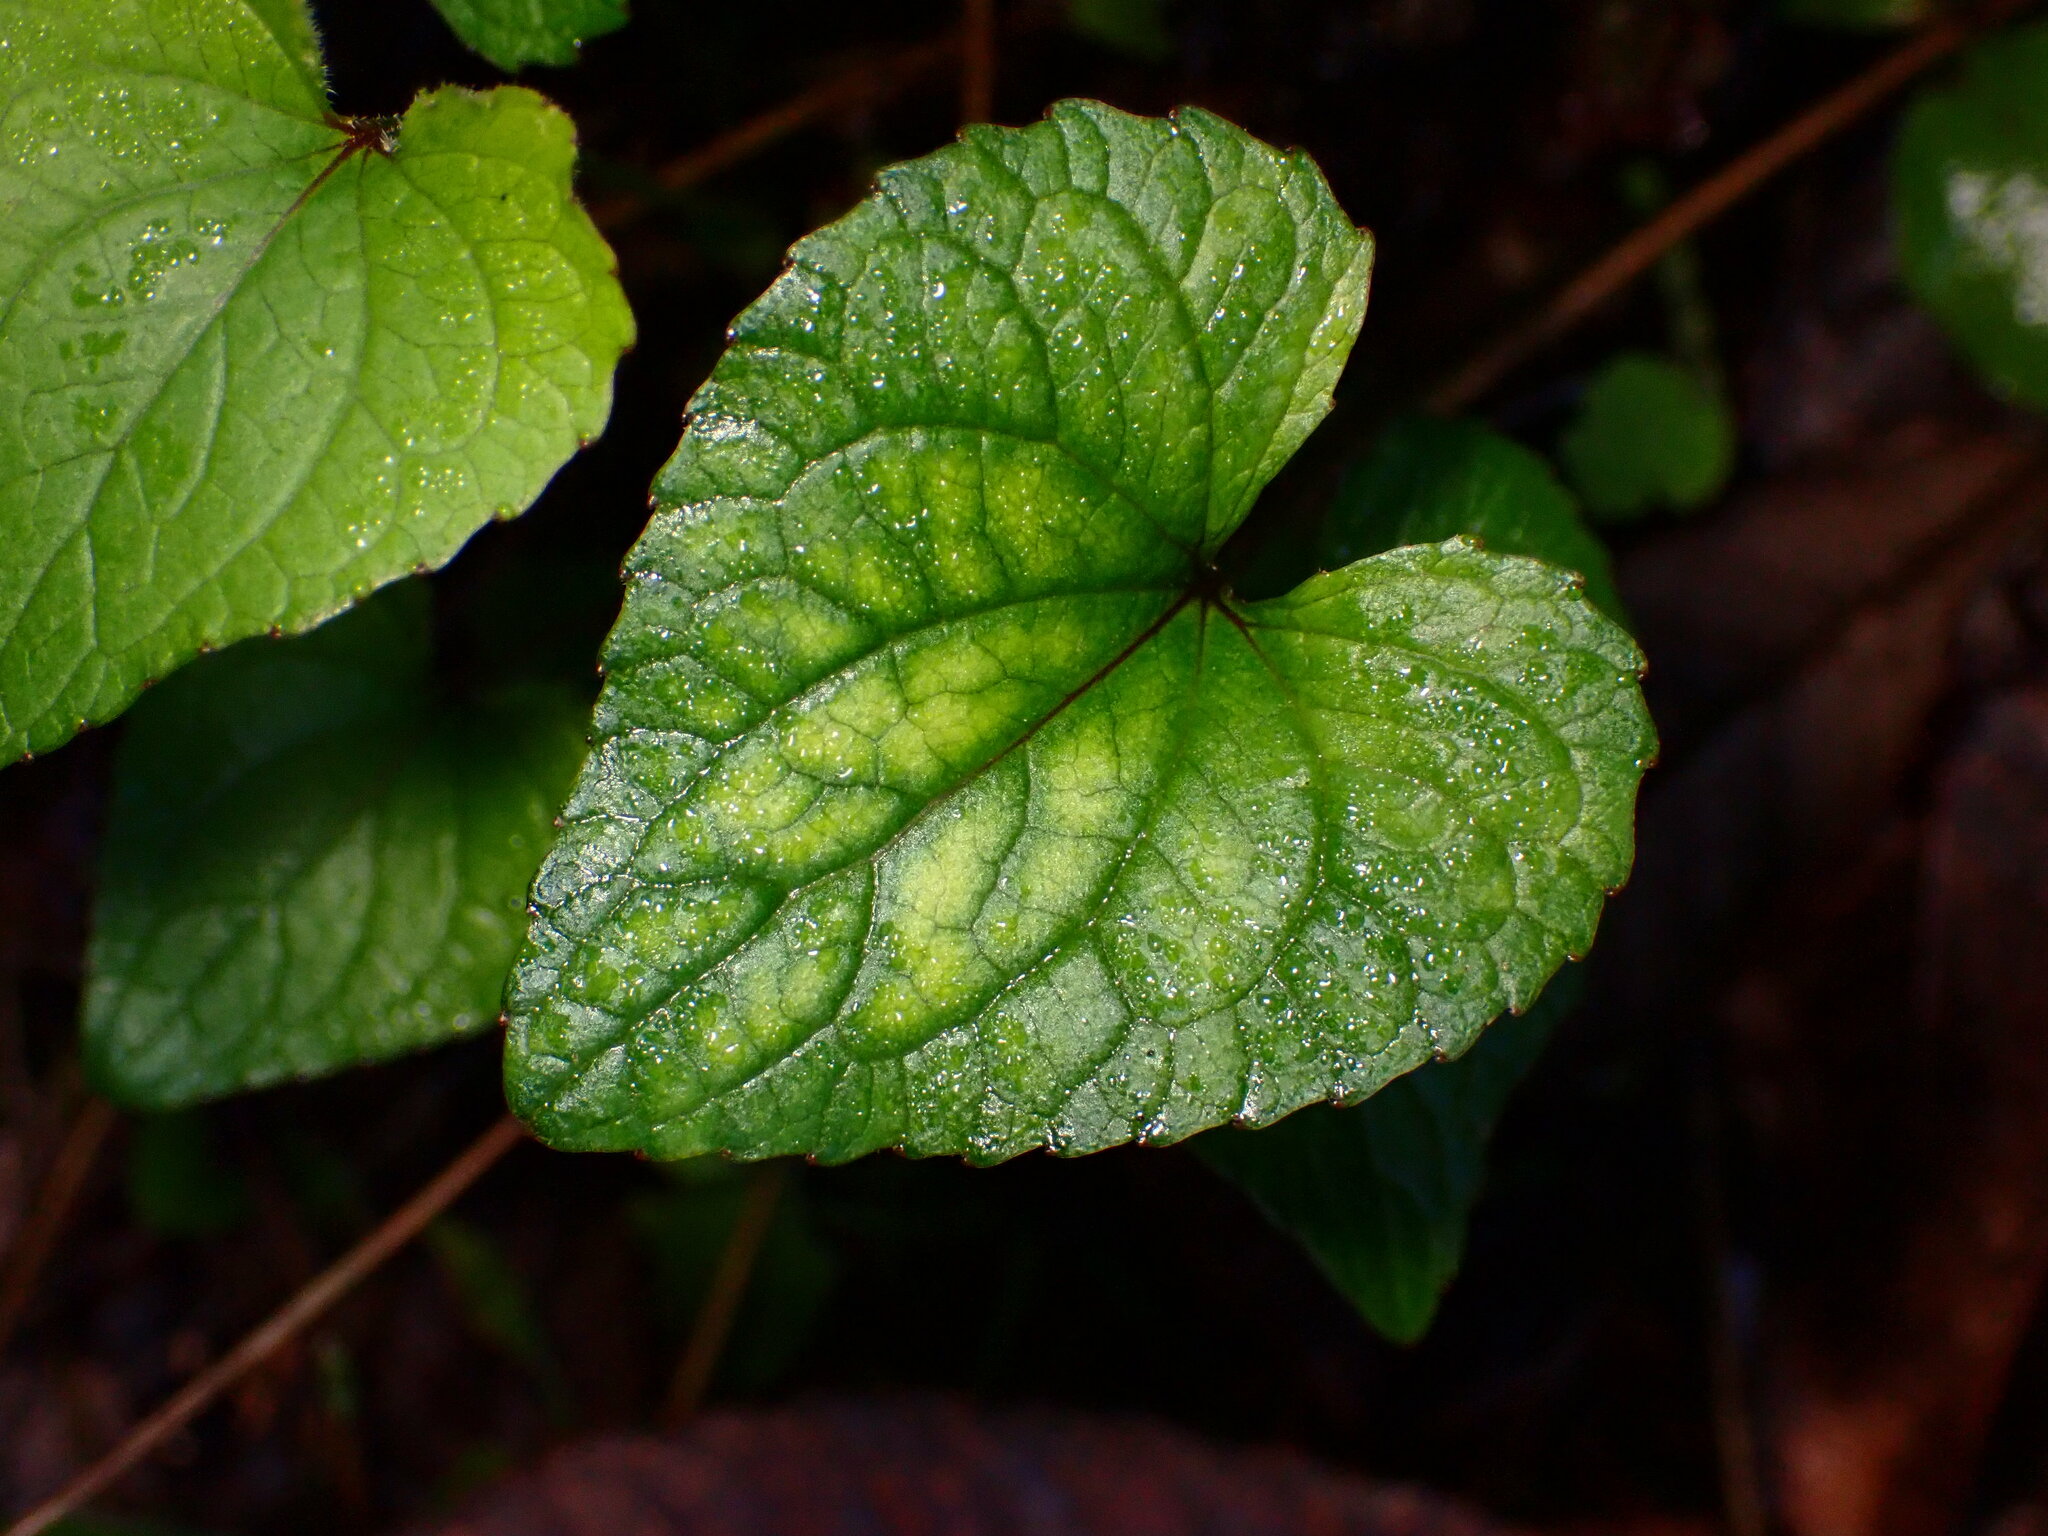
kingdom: Plantae
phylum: Tracheophyta
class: Magnoliopsida
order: Malpighiales
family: Violaceae
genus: Viola
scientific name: Viola ocellata
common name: Western heart's ease
